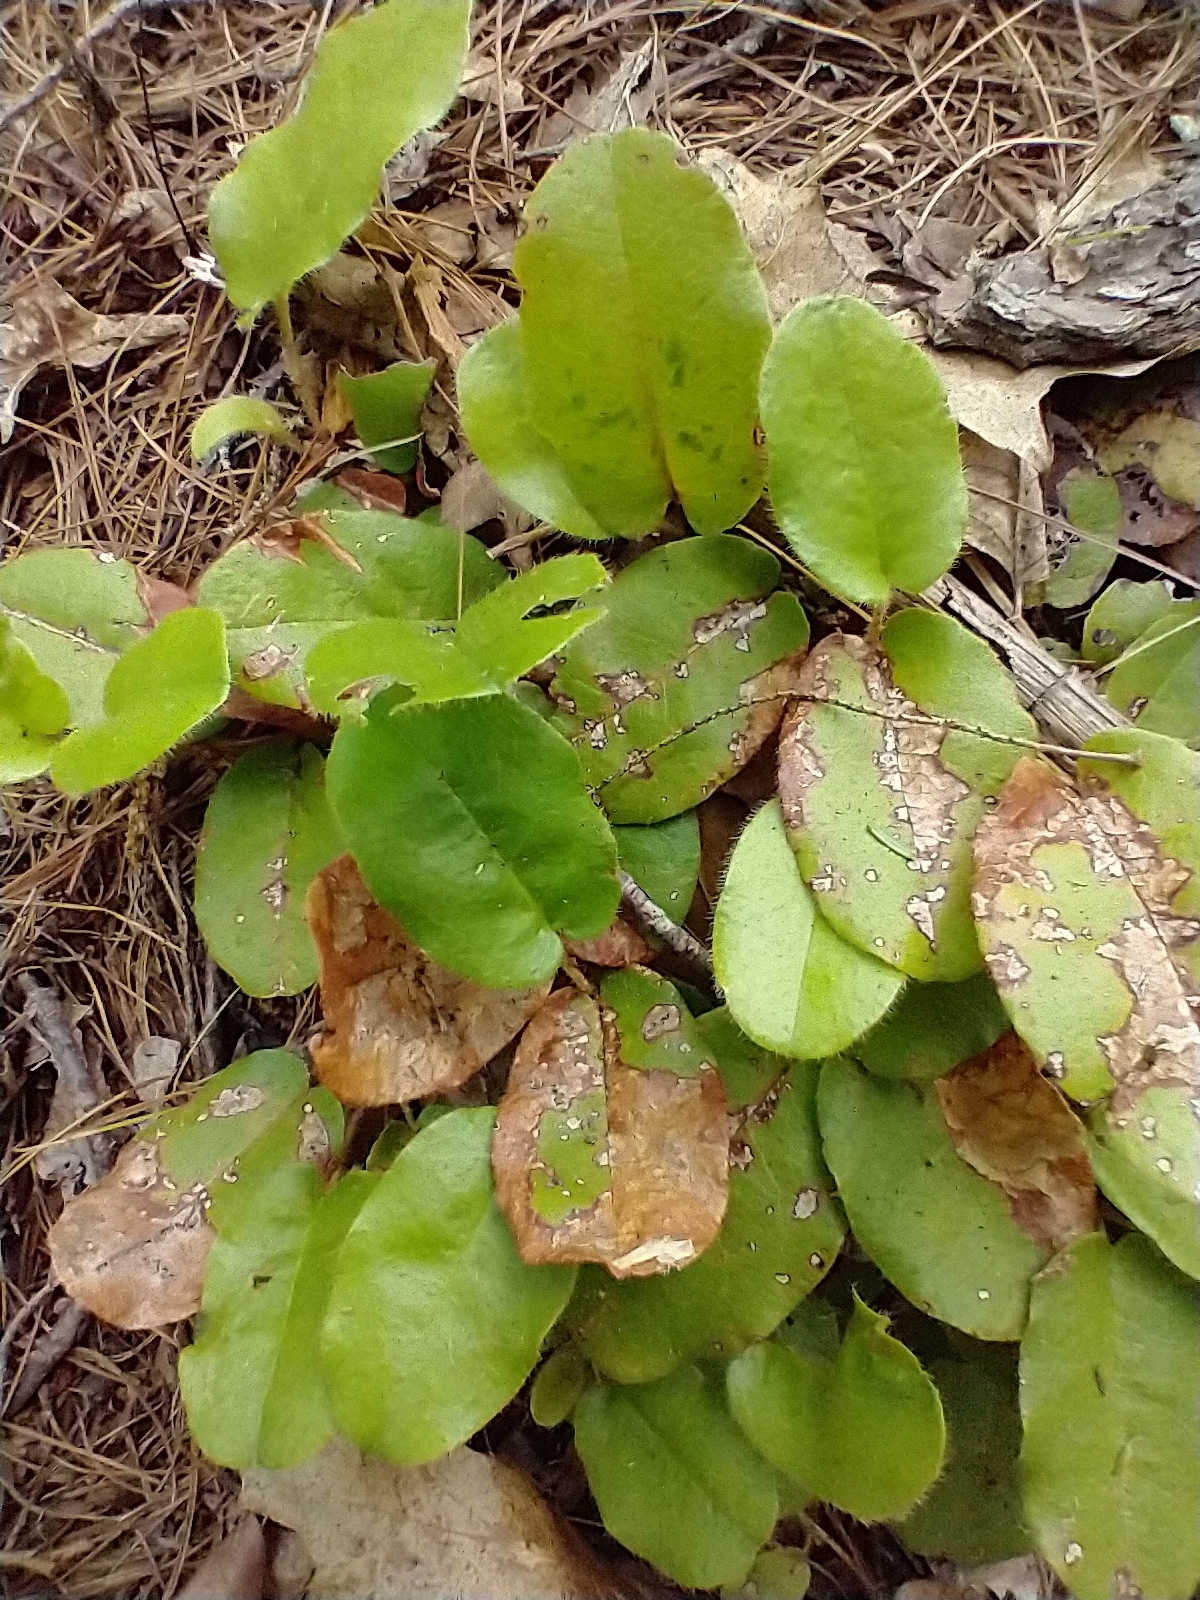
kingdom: Plantae
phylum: Tracheophyta
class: Magnoliopsida
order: Ericales
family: Ericaceae
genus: Epigaea
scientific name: Epigaea repens
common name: Gravelroot
